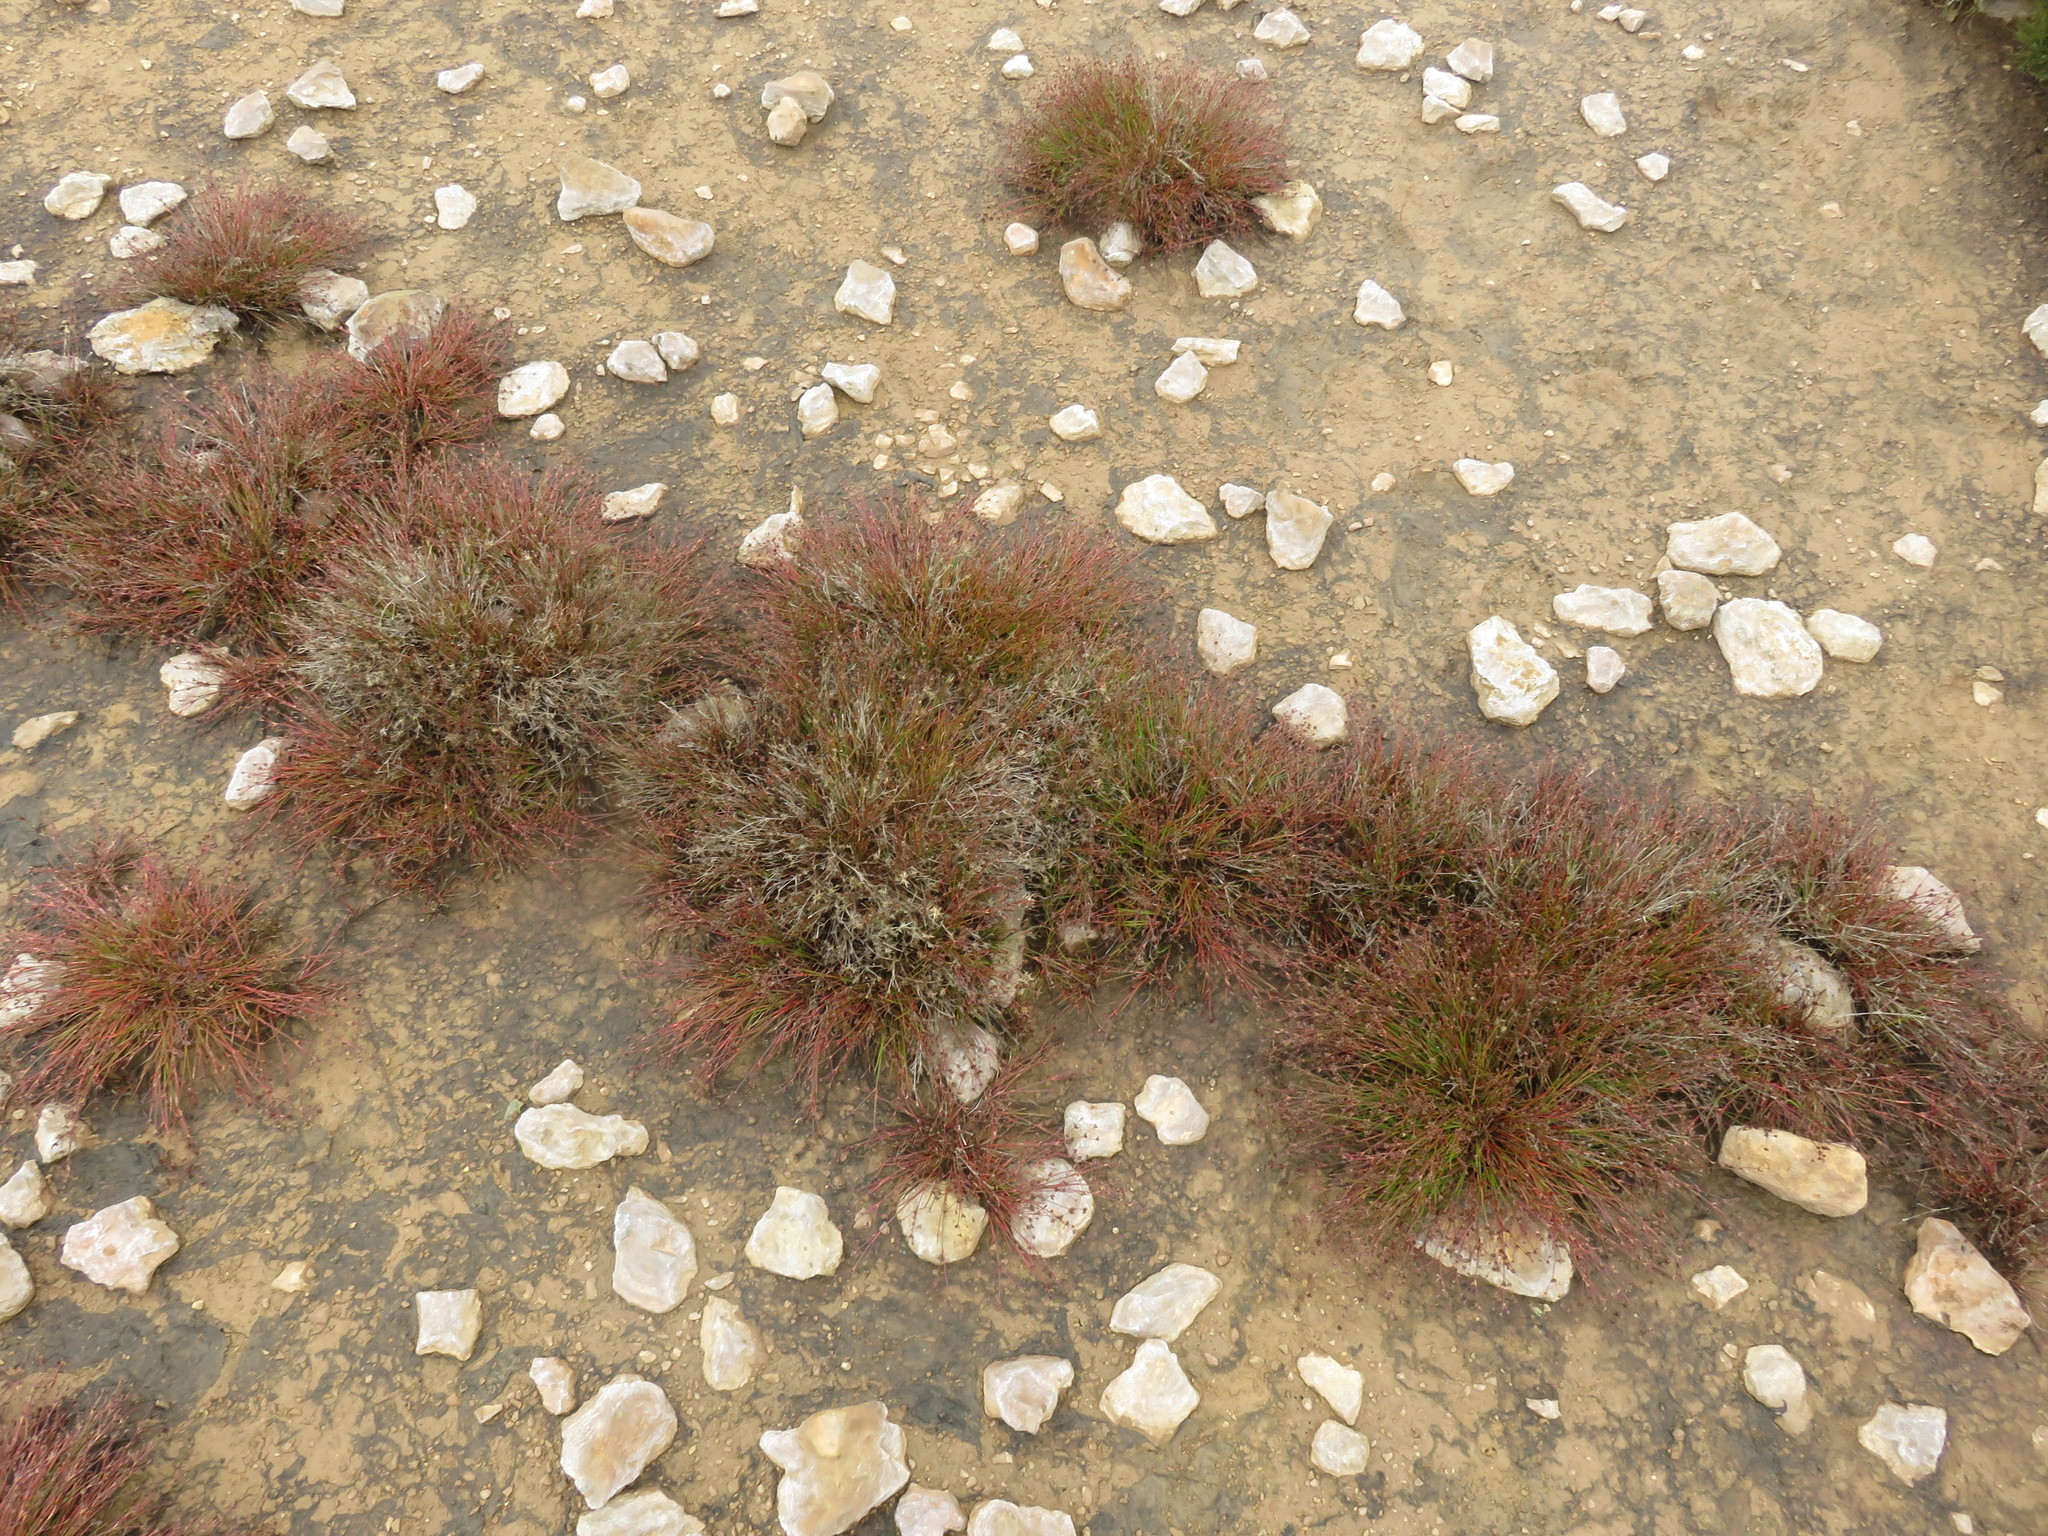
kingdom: Plantae
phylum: Tracheophyta
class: Liliopsida
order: Poales
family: Juncaceae
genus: Juncus
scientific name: Juncus bulbosus
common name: Bulbous rush
